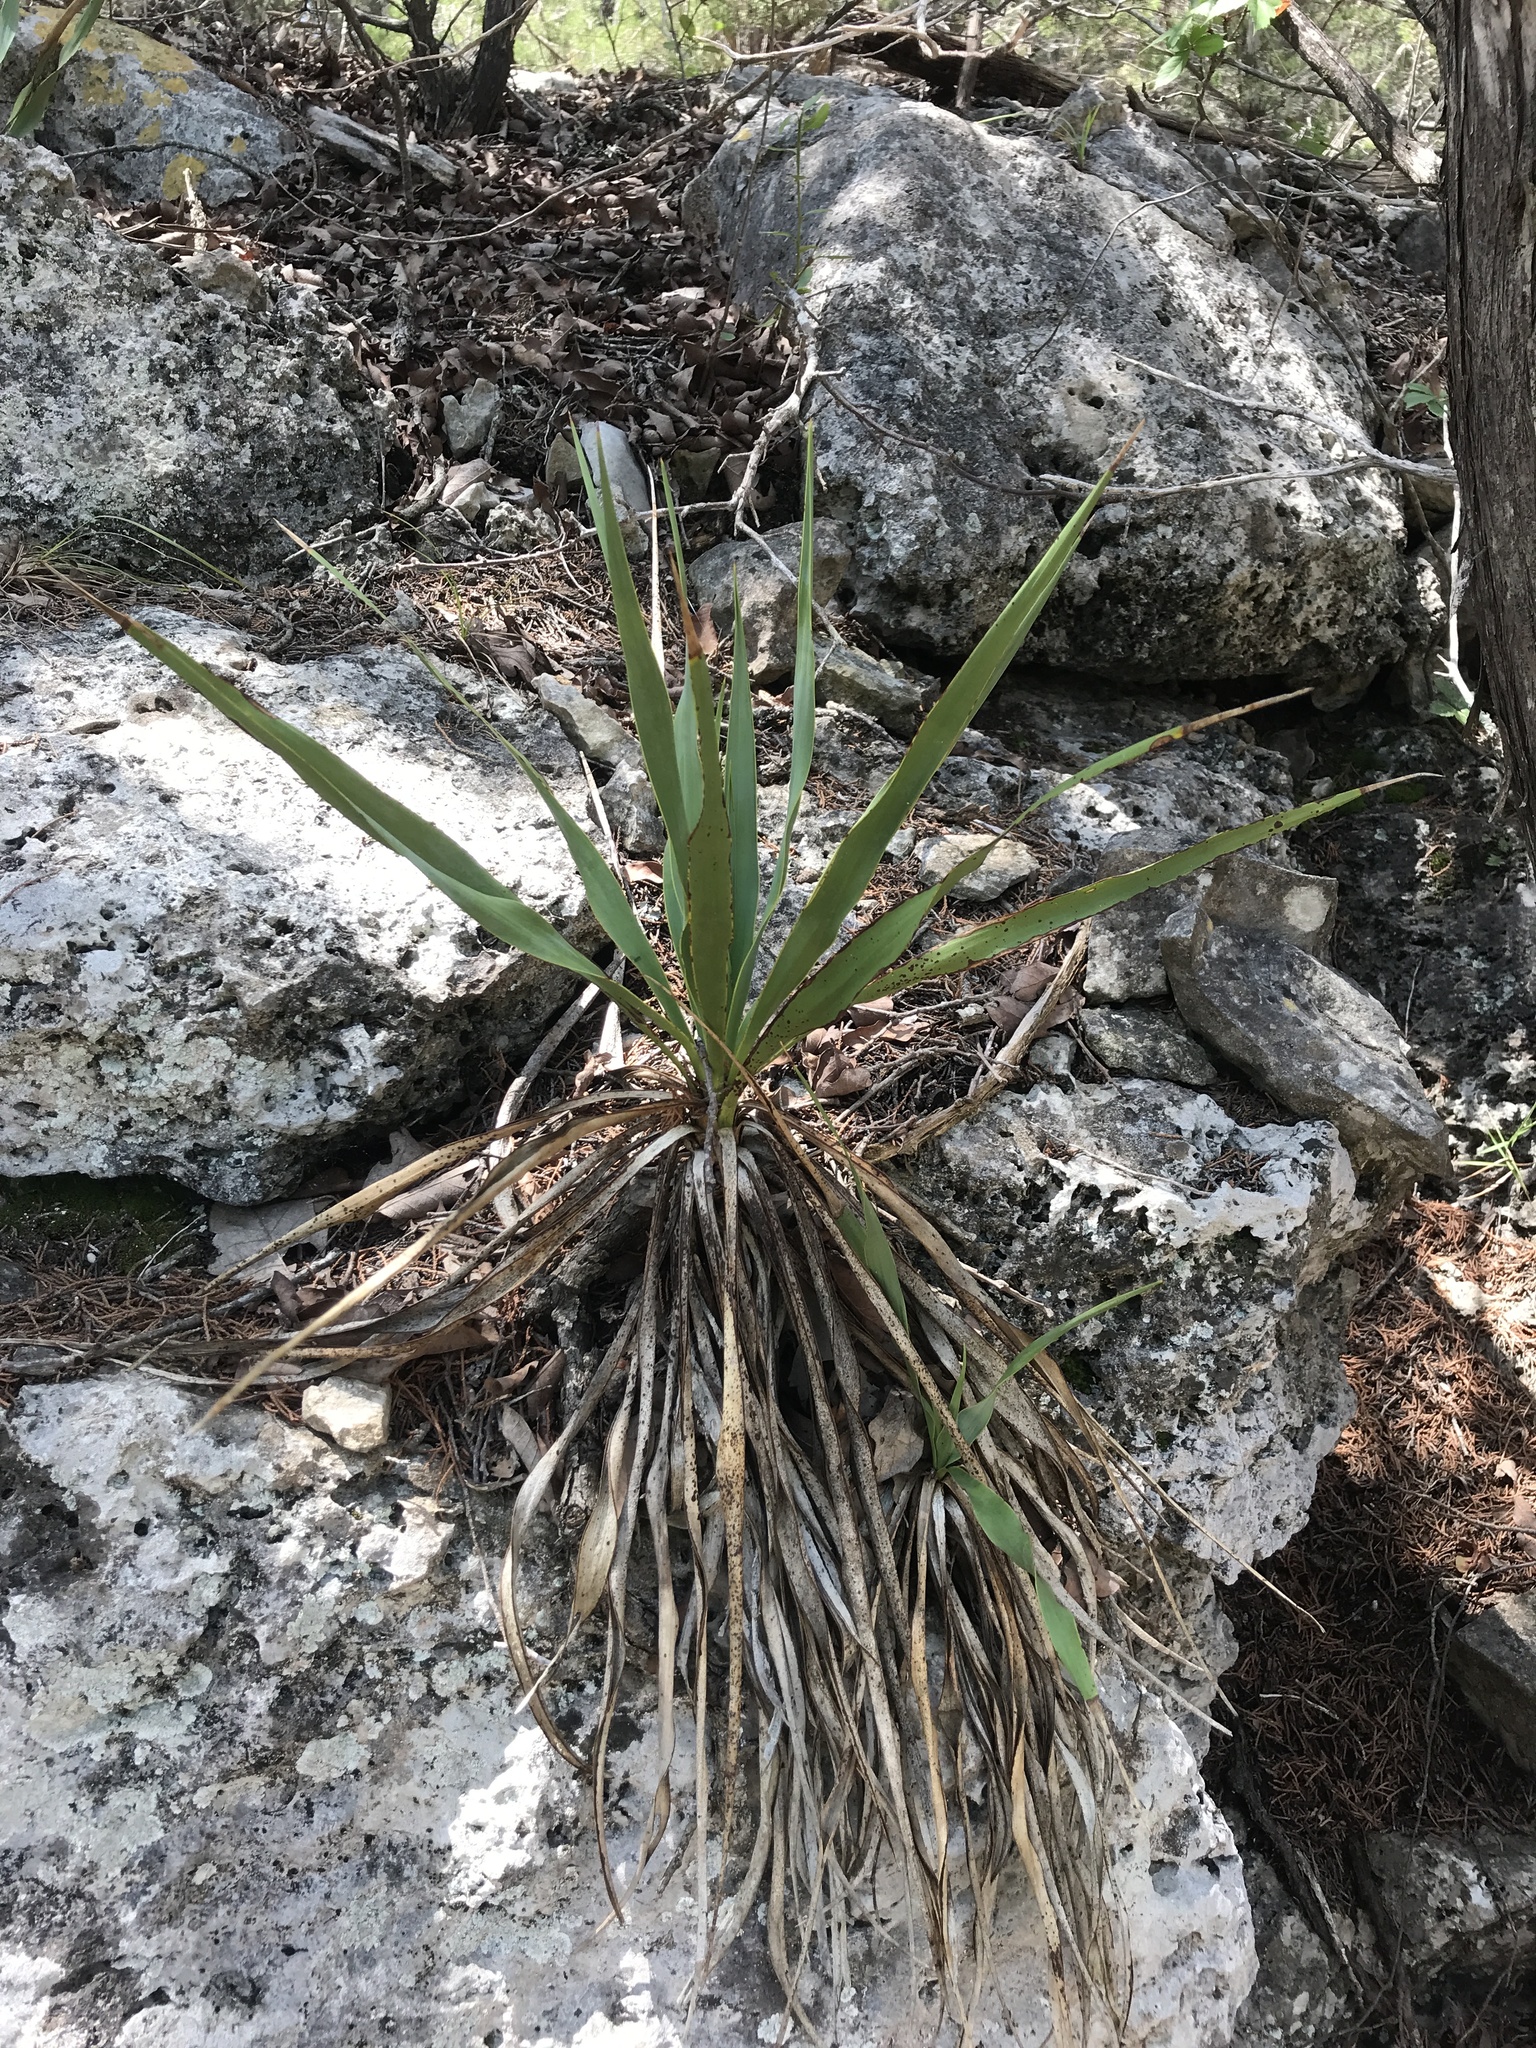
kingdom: Plantae
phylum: Tracheophyta
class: Liliopsida
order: Asparagales
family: Asparagaceae
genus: Yucca
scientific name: Yucca rupicola
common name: Twisted-leaf spanish-dagger
